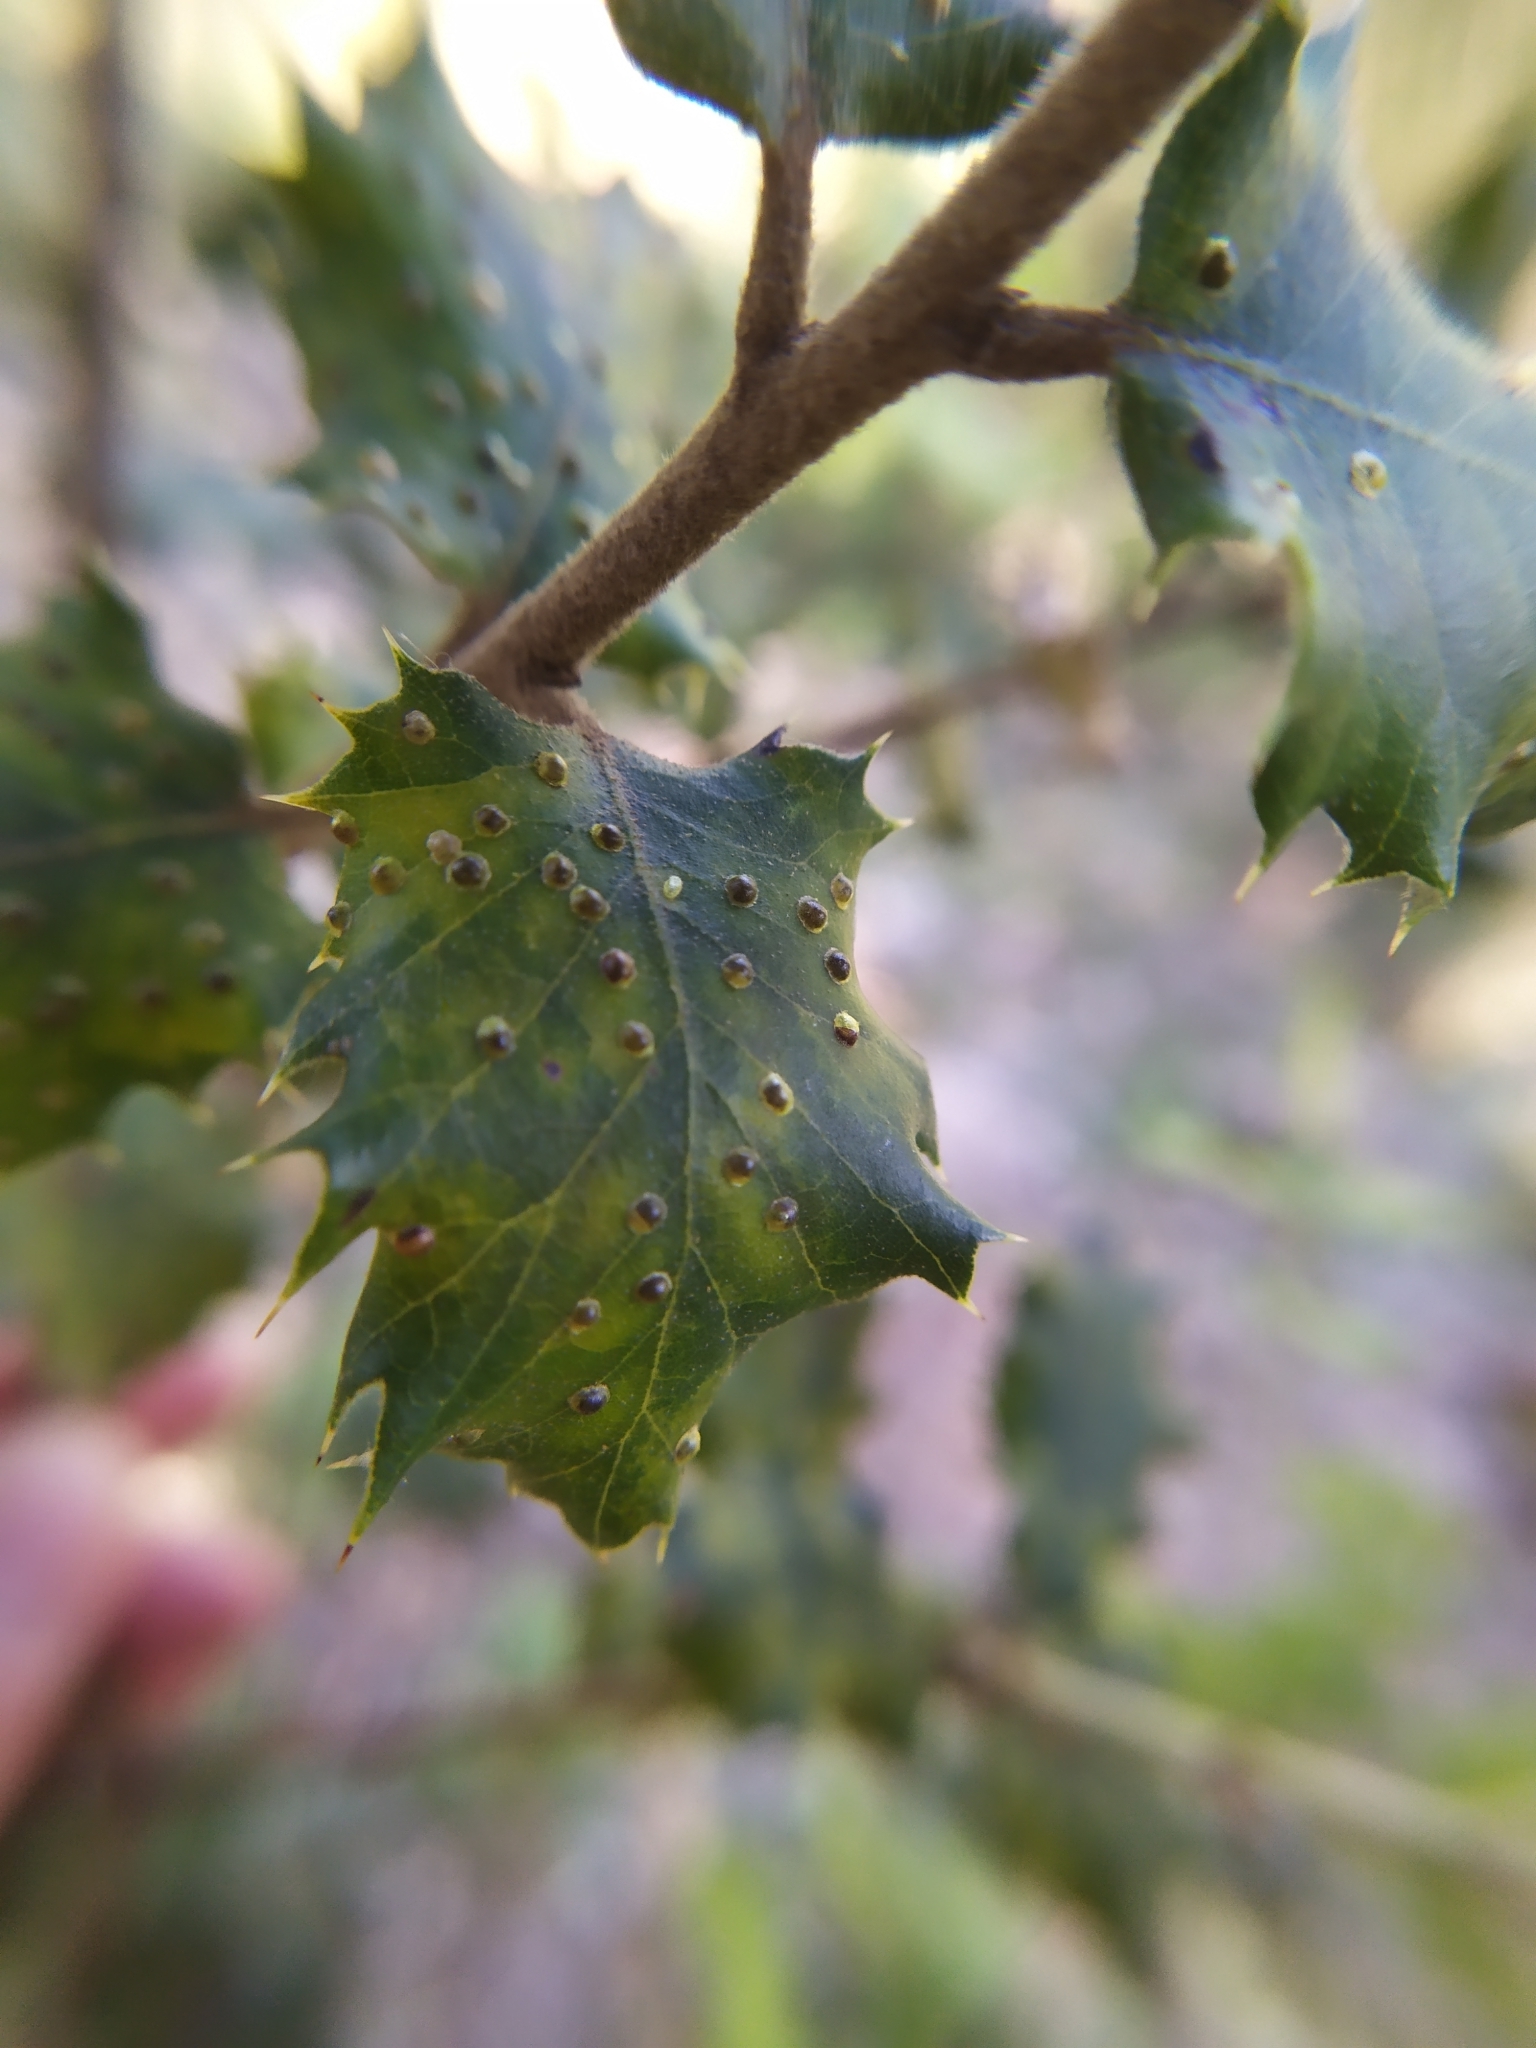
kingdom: Plantae
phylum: Tracheophyta
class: Magnoliopsida
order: Fagales
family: Fagaceae
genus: Quercus
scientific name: Quercus ilex
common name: Evergreen oak
